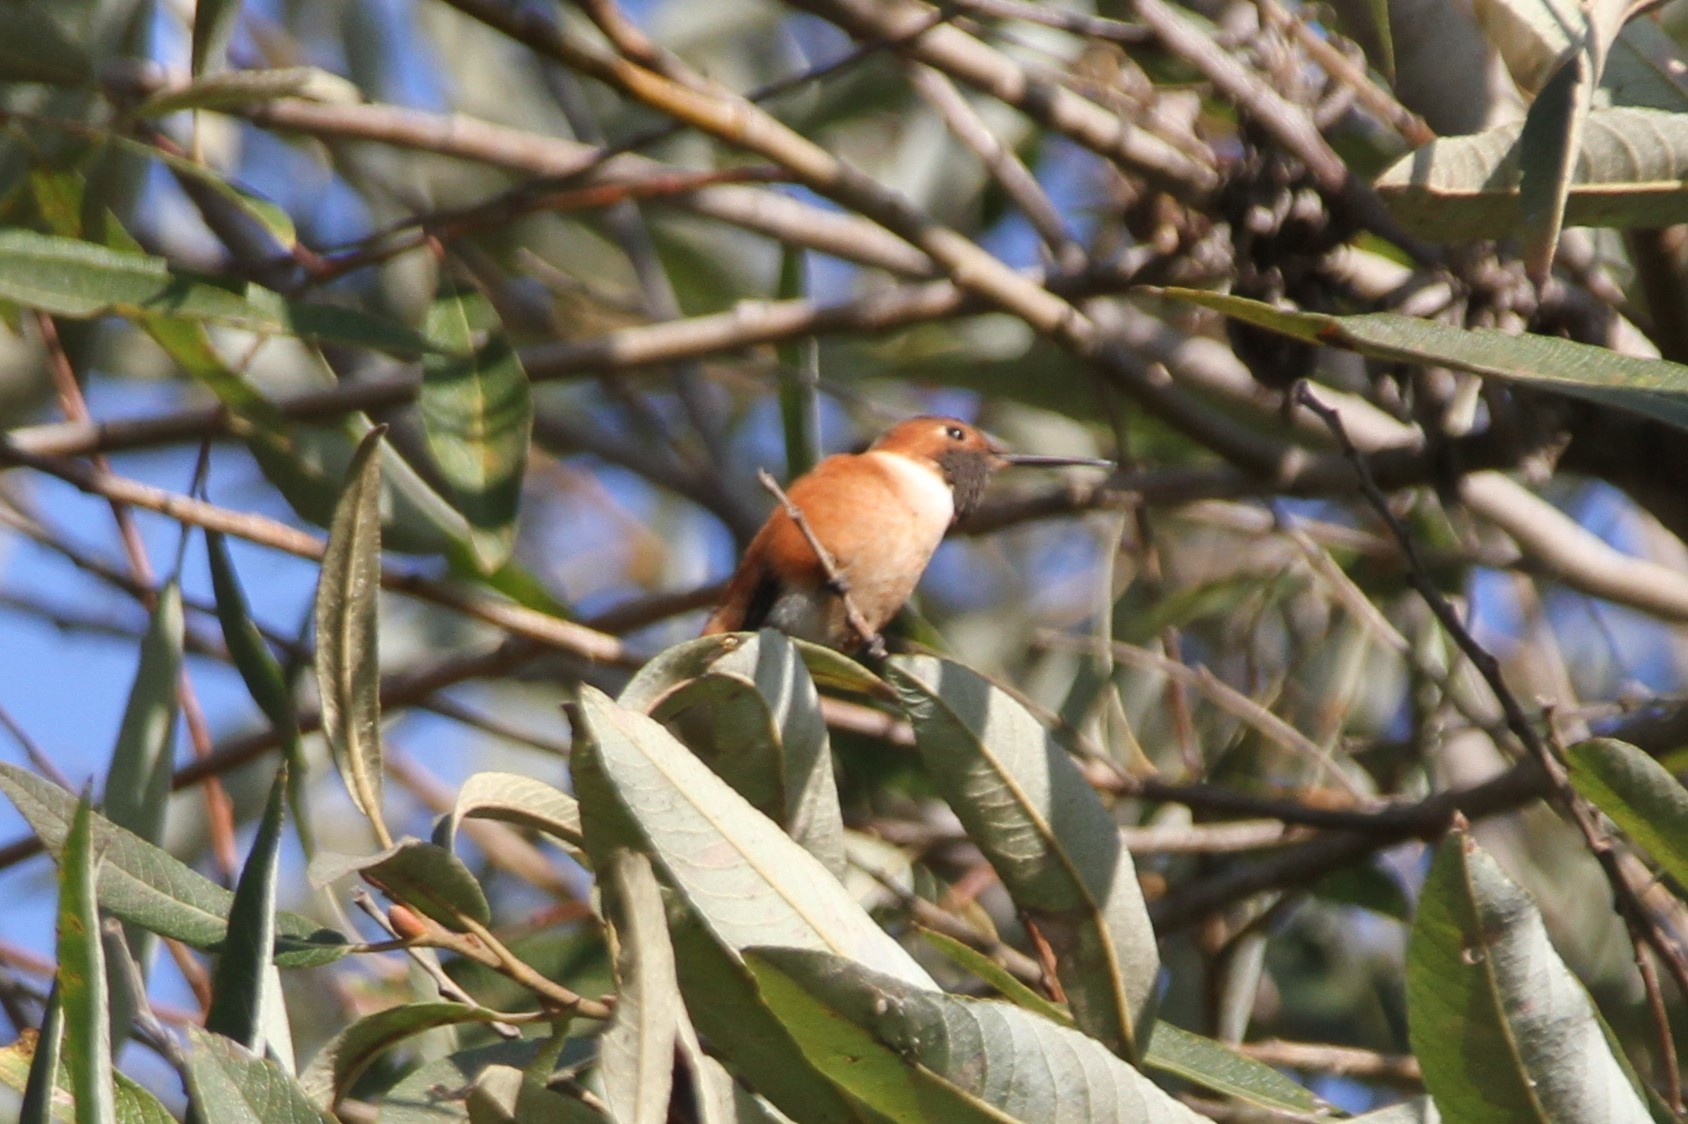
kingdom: Animalia
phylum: Chordata
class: Aves
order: Apodiformes
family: Trochilidae
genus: Selasphorus
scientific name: Selasphorus sasin
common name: Allen's hummingbird
